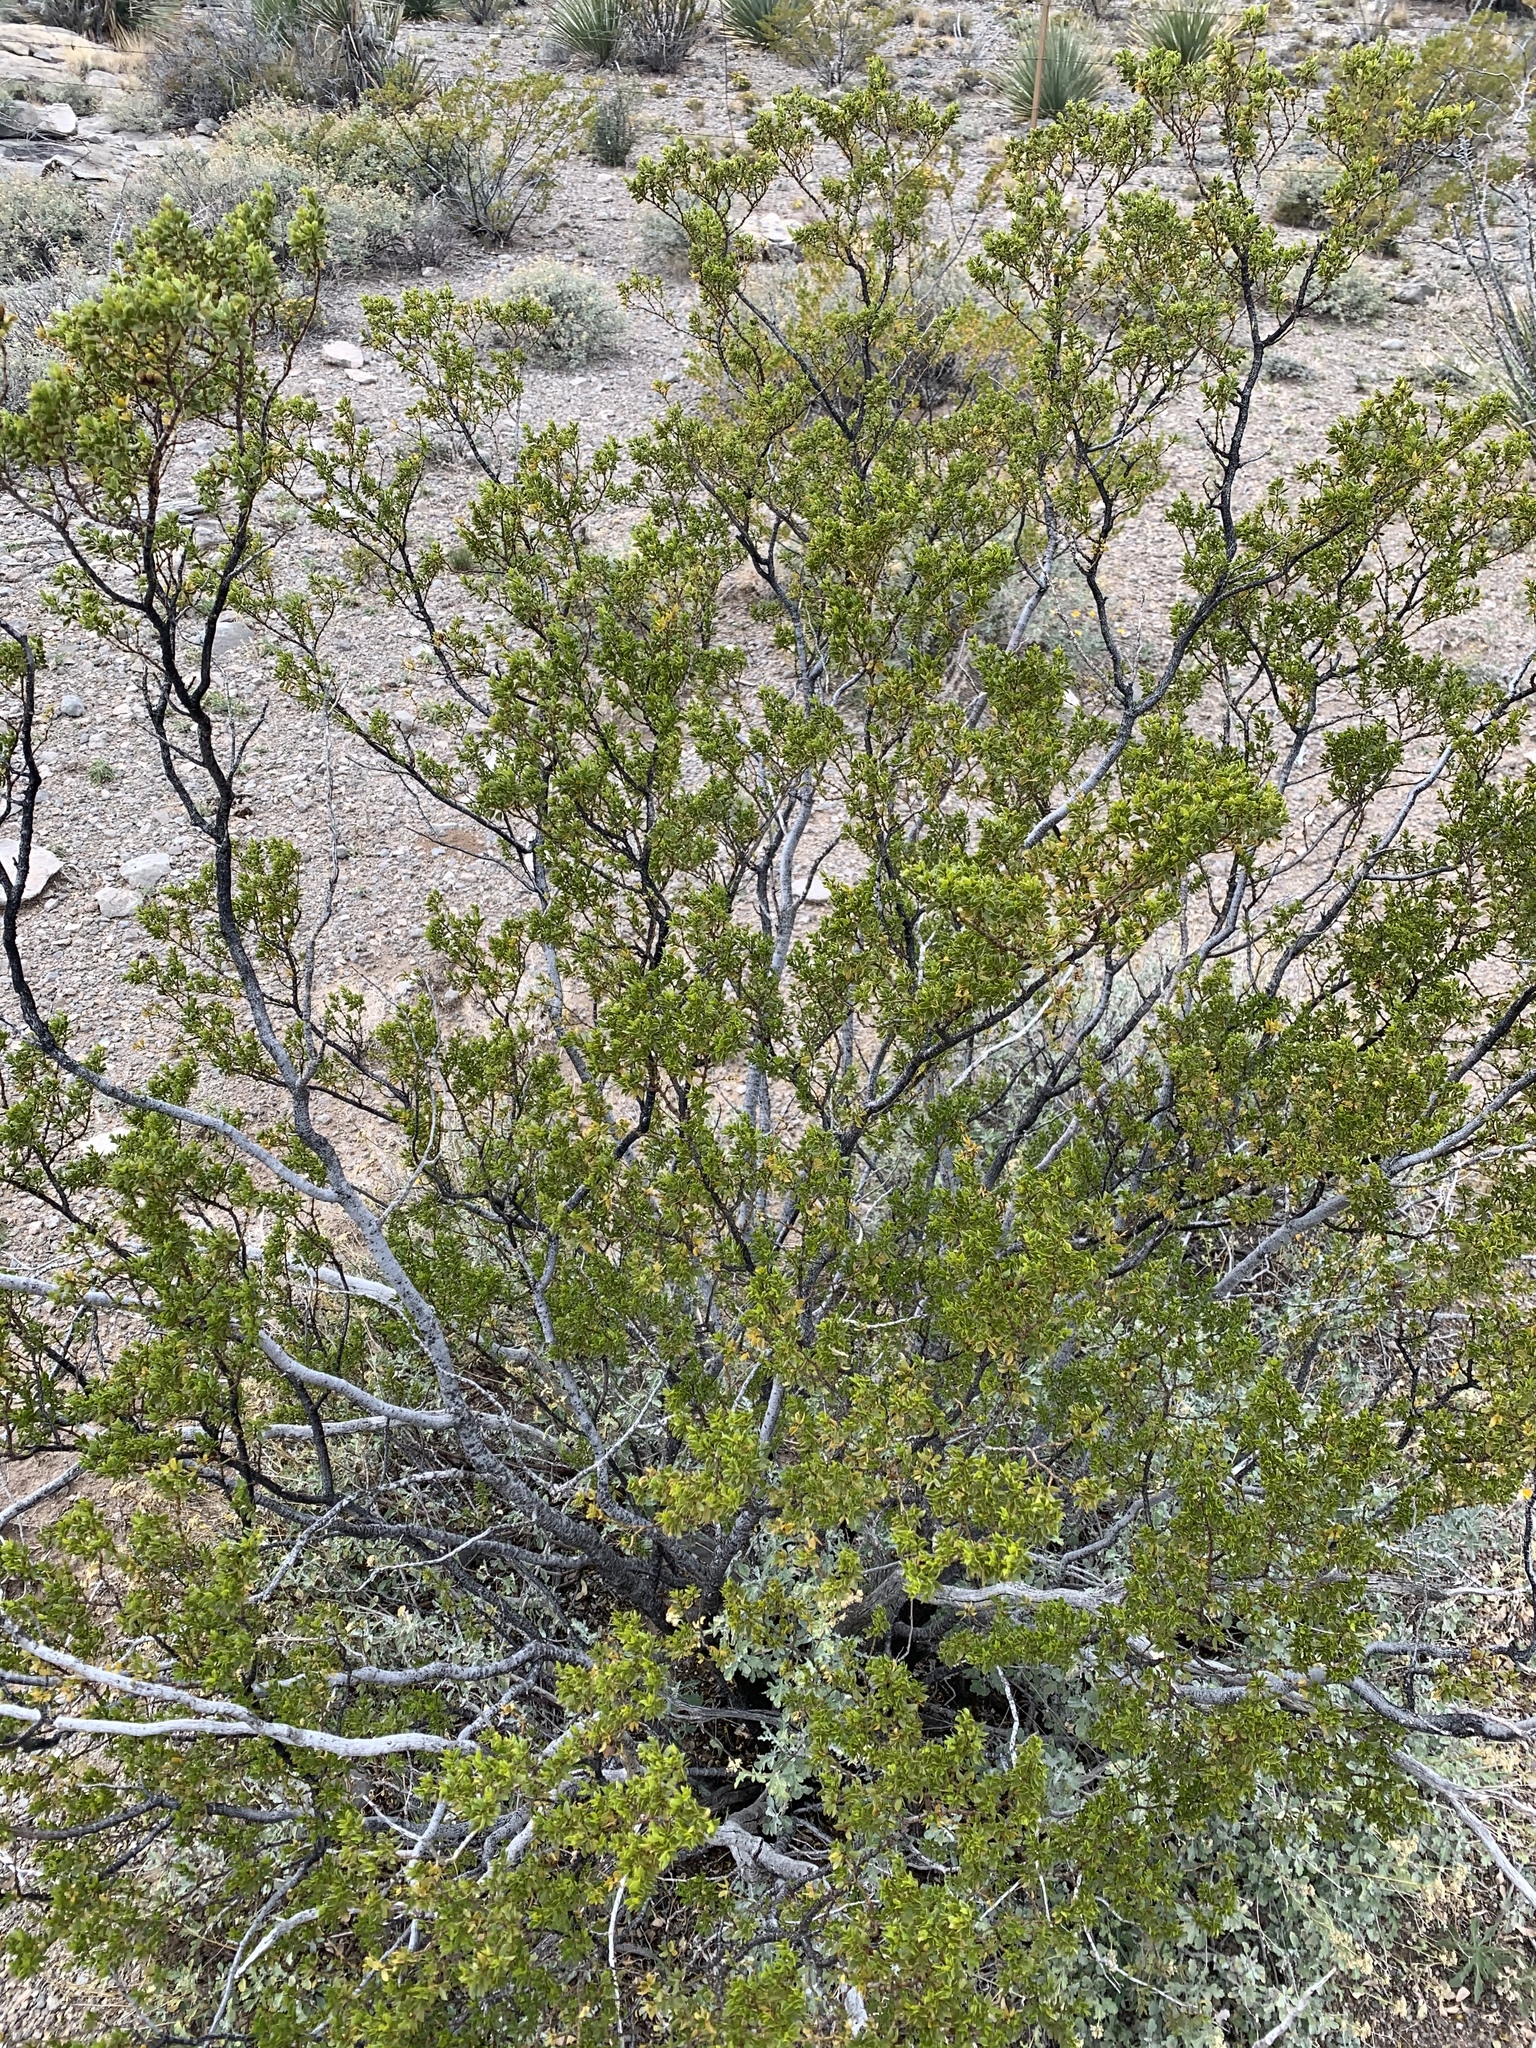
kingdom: Plantae
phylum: Tracheophyta
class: Magnoliopsida
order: Zygophyllales
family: Zygophyllaceae
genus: Larrea
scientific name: Larrea tridentata
